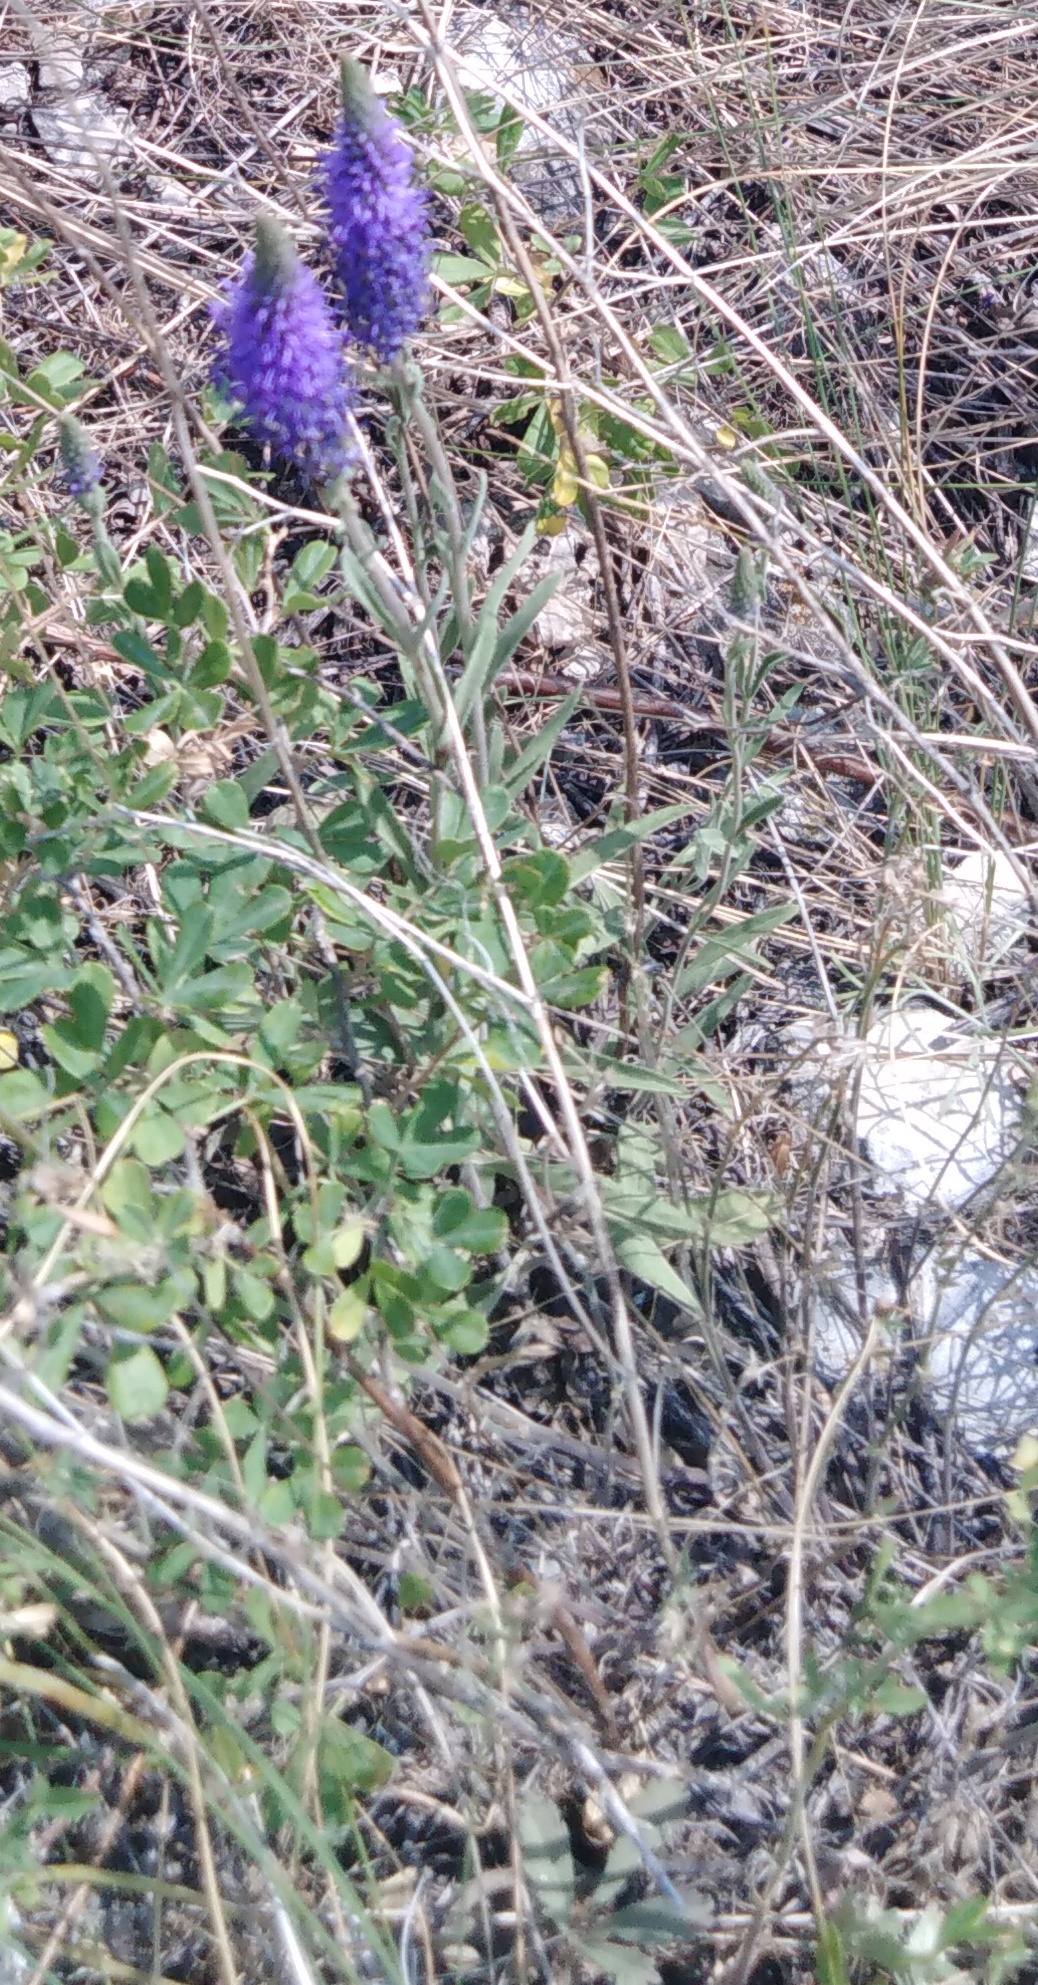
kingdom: Plantae
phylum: Tracheophyta
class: Magnoliopsida
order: Lamiales
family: Plantaginaceae
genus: Veronica
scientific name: Veronica incana
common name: Silver speedwell
